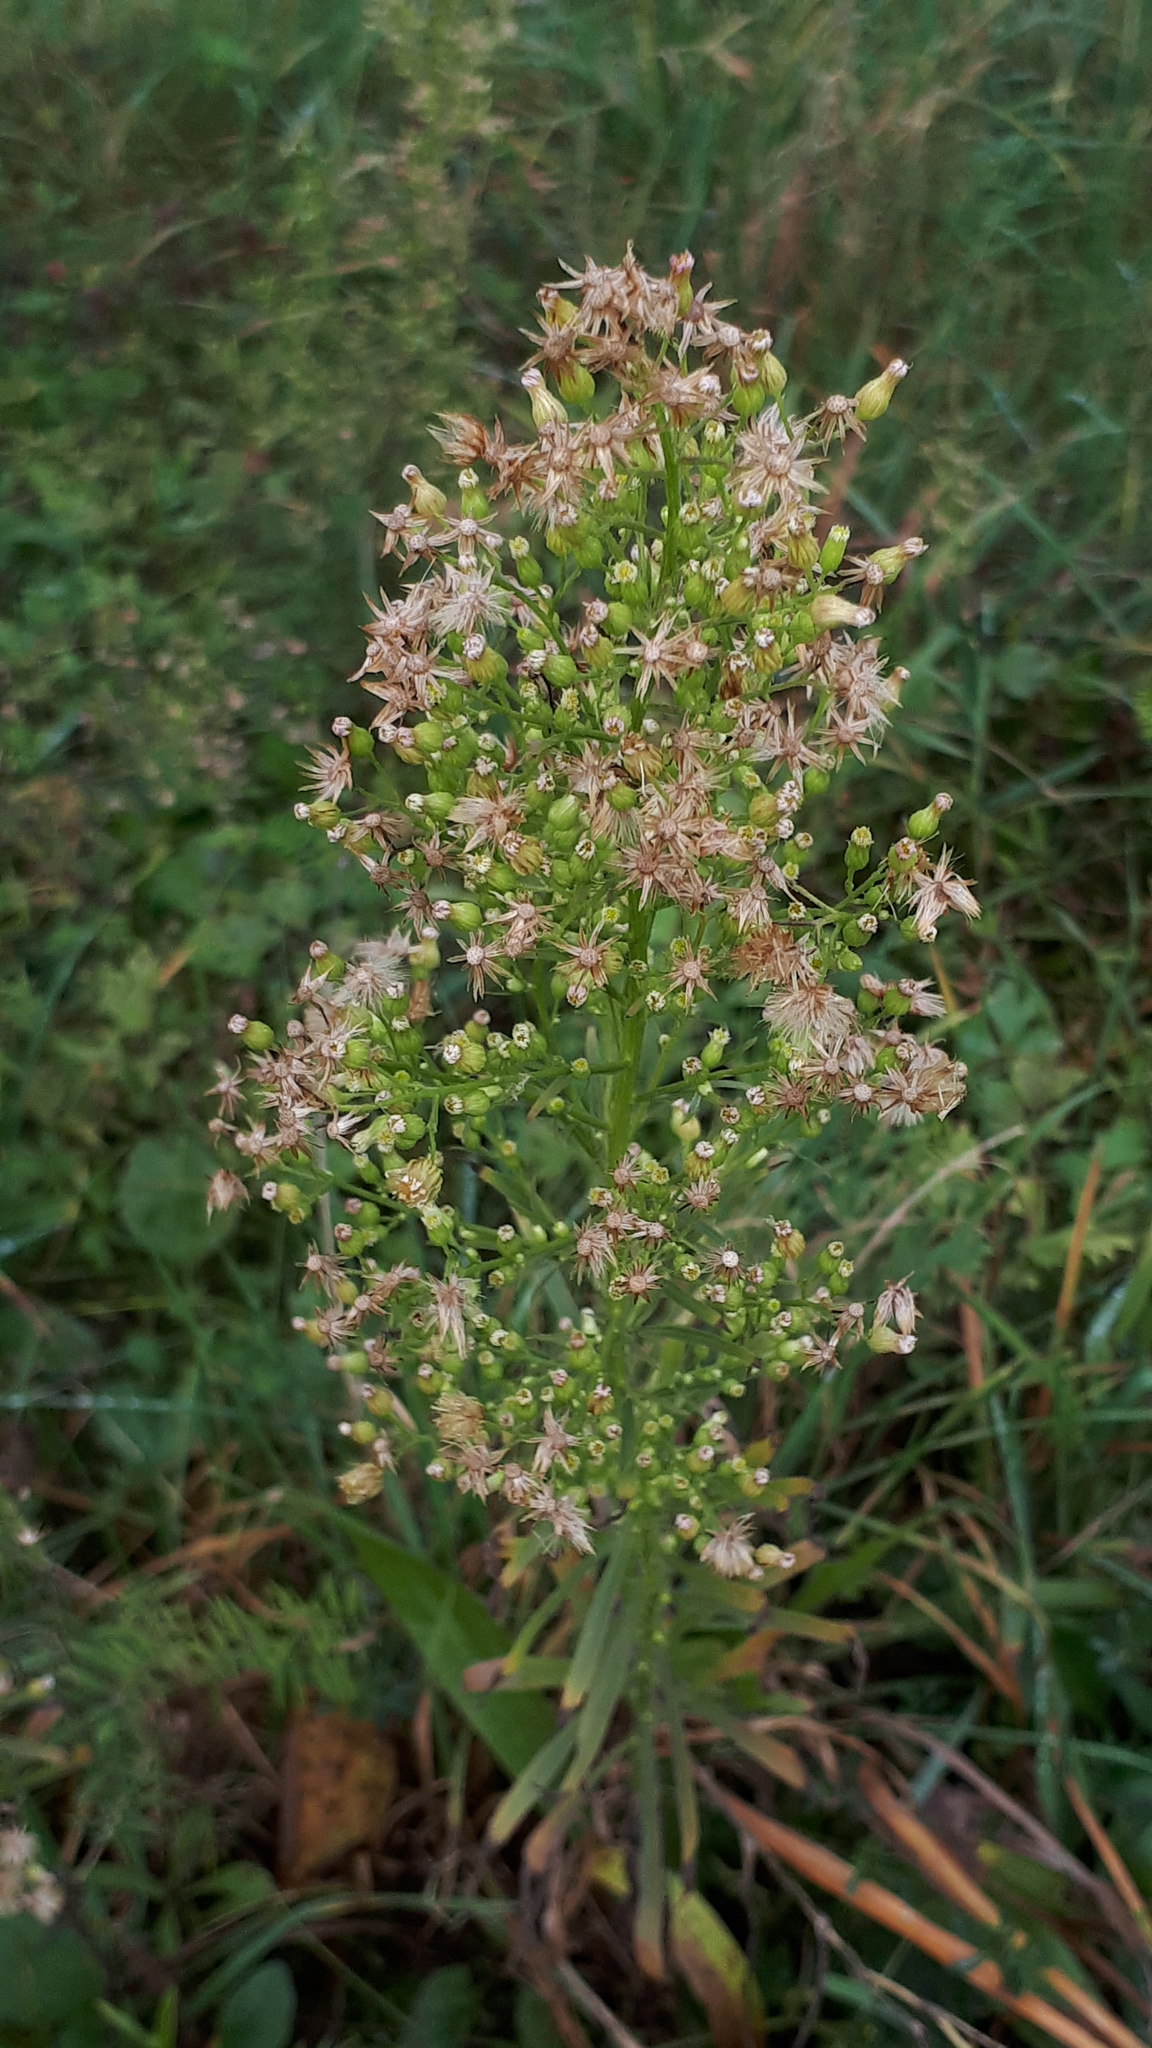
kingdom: Plantae
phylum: Tracheophyta
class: Magnoliopsida
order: Asterales
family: Asteraceae
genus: Erigeron
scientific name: Erigeron canadensis
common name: Canadian fleabane
